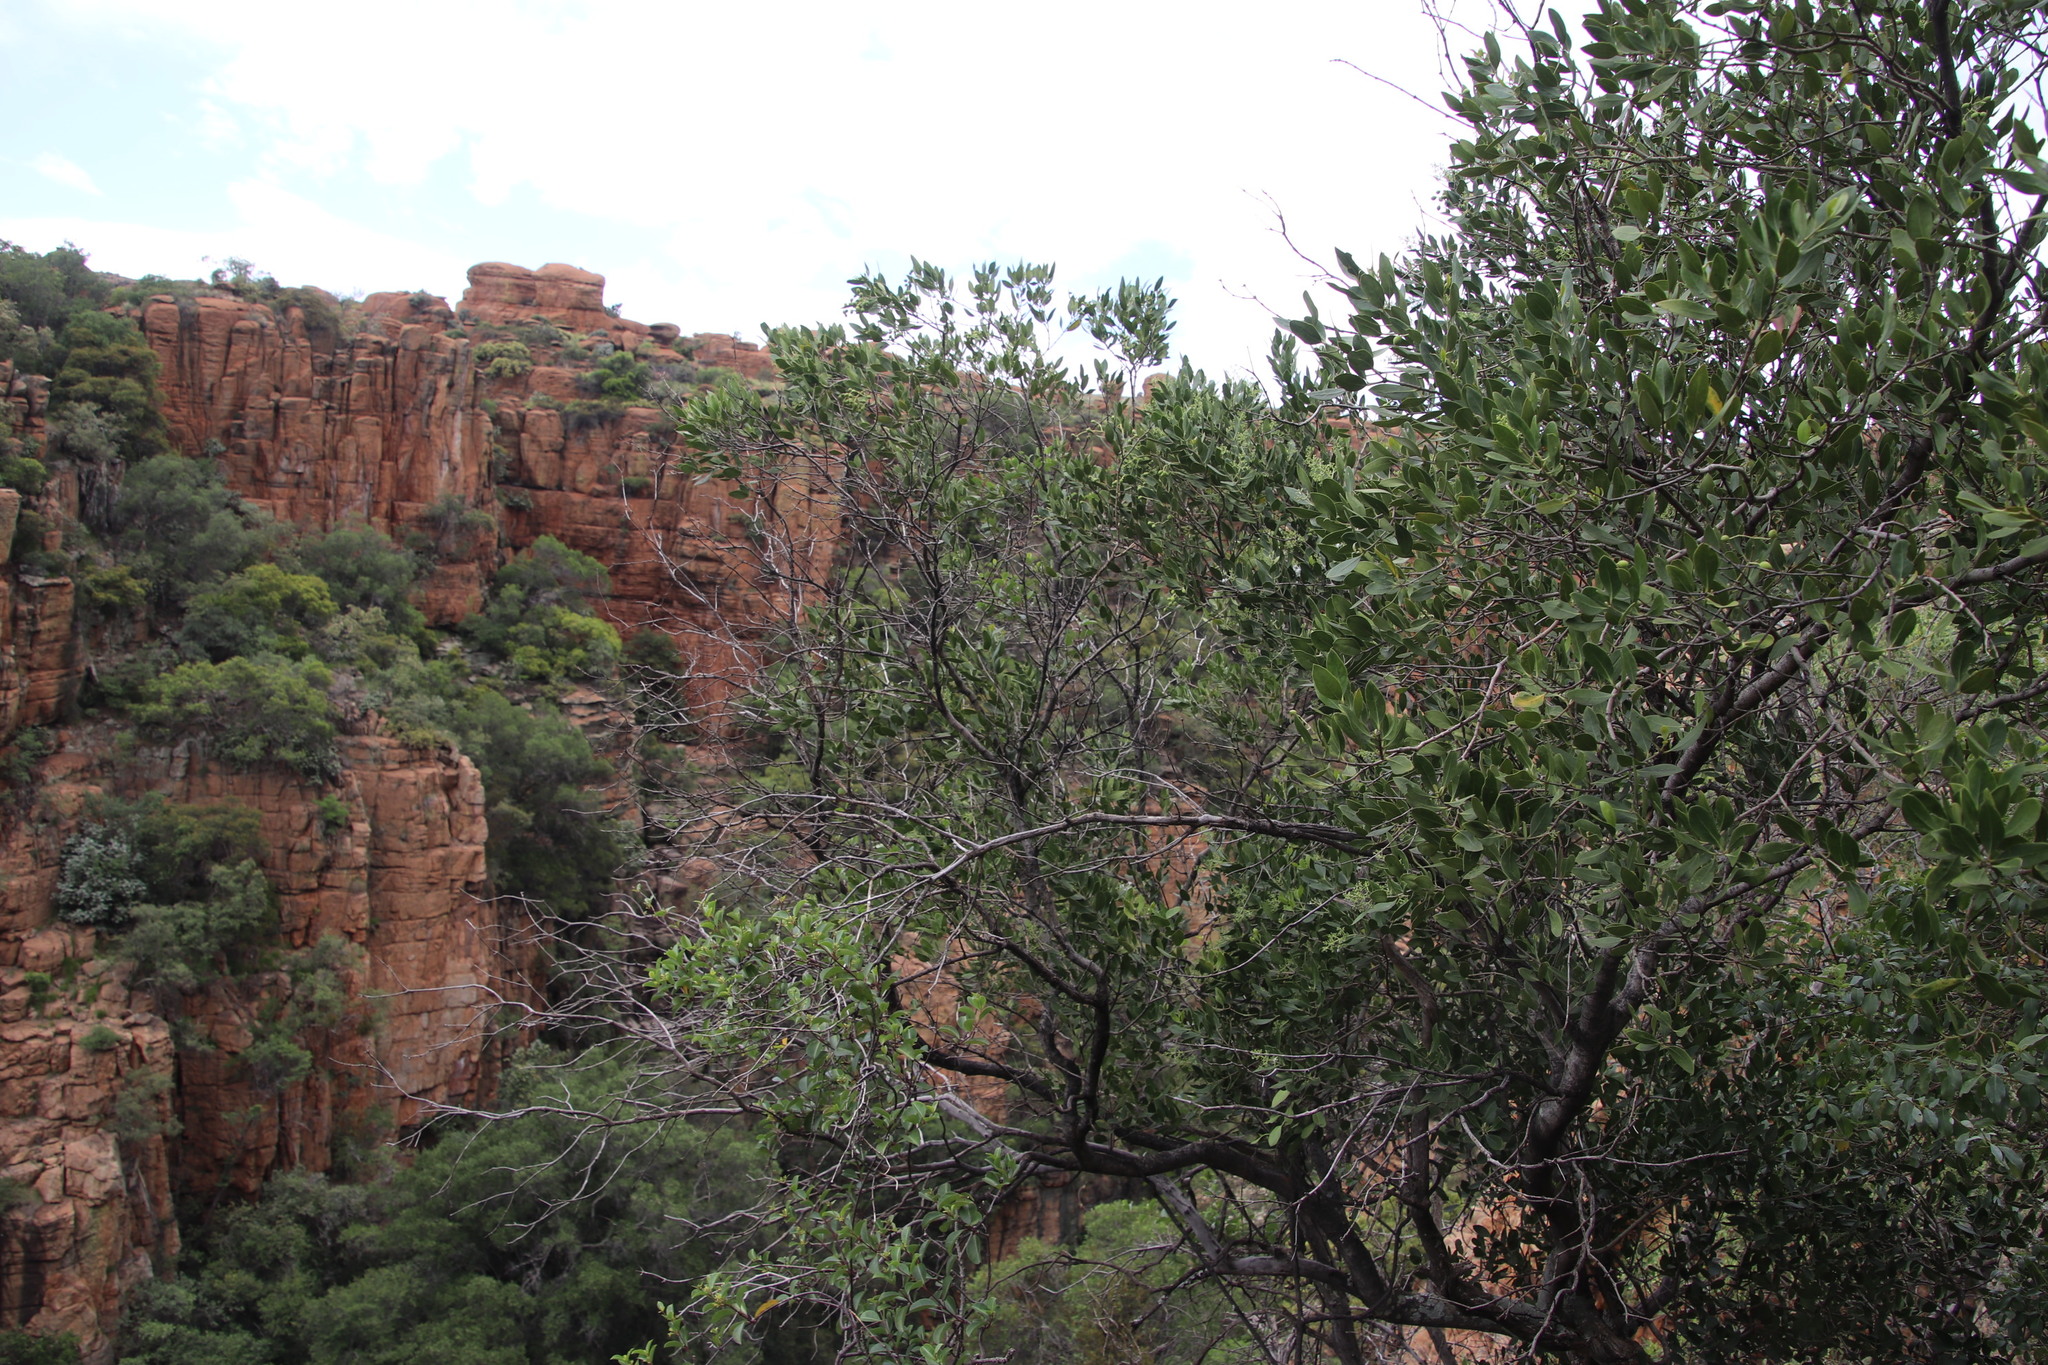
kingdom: Plantae
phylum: Tracheophyta
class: Magnoliopsida
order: Lamiales
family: Oleaceae
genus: Olea
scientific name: Olea capensis
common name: Black ironwood
